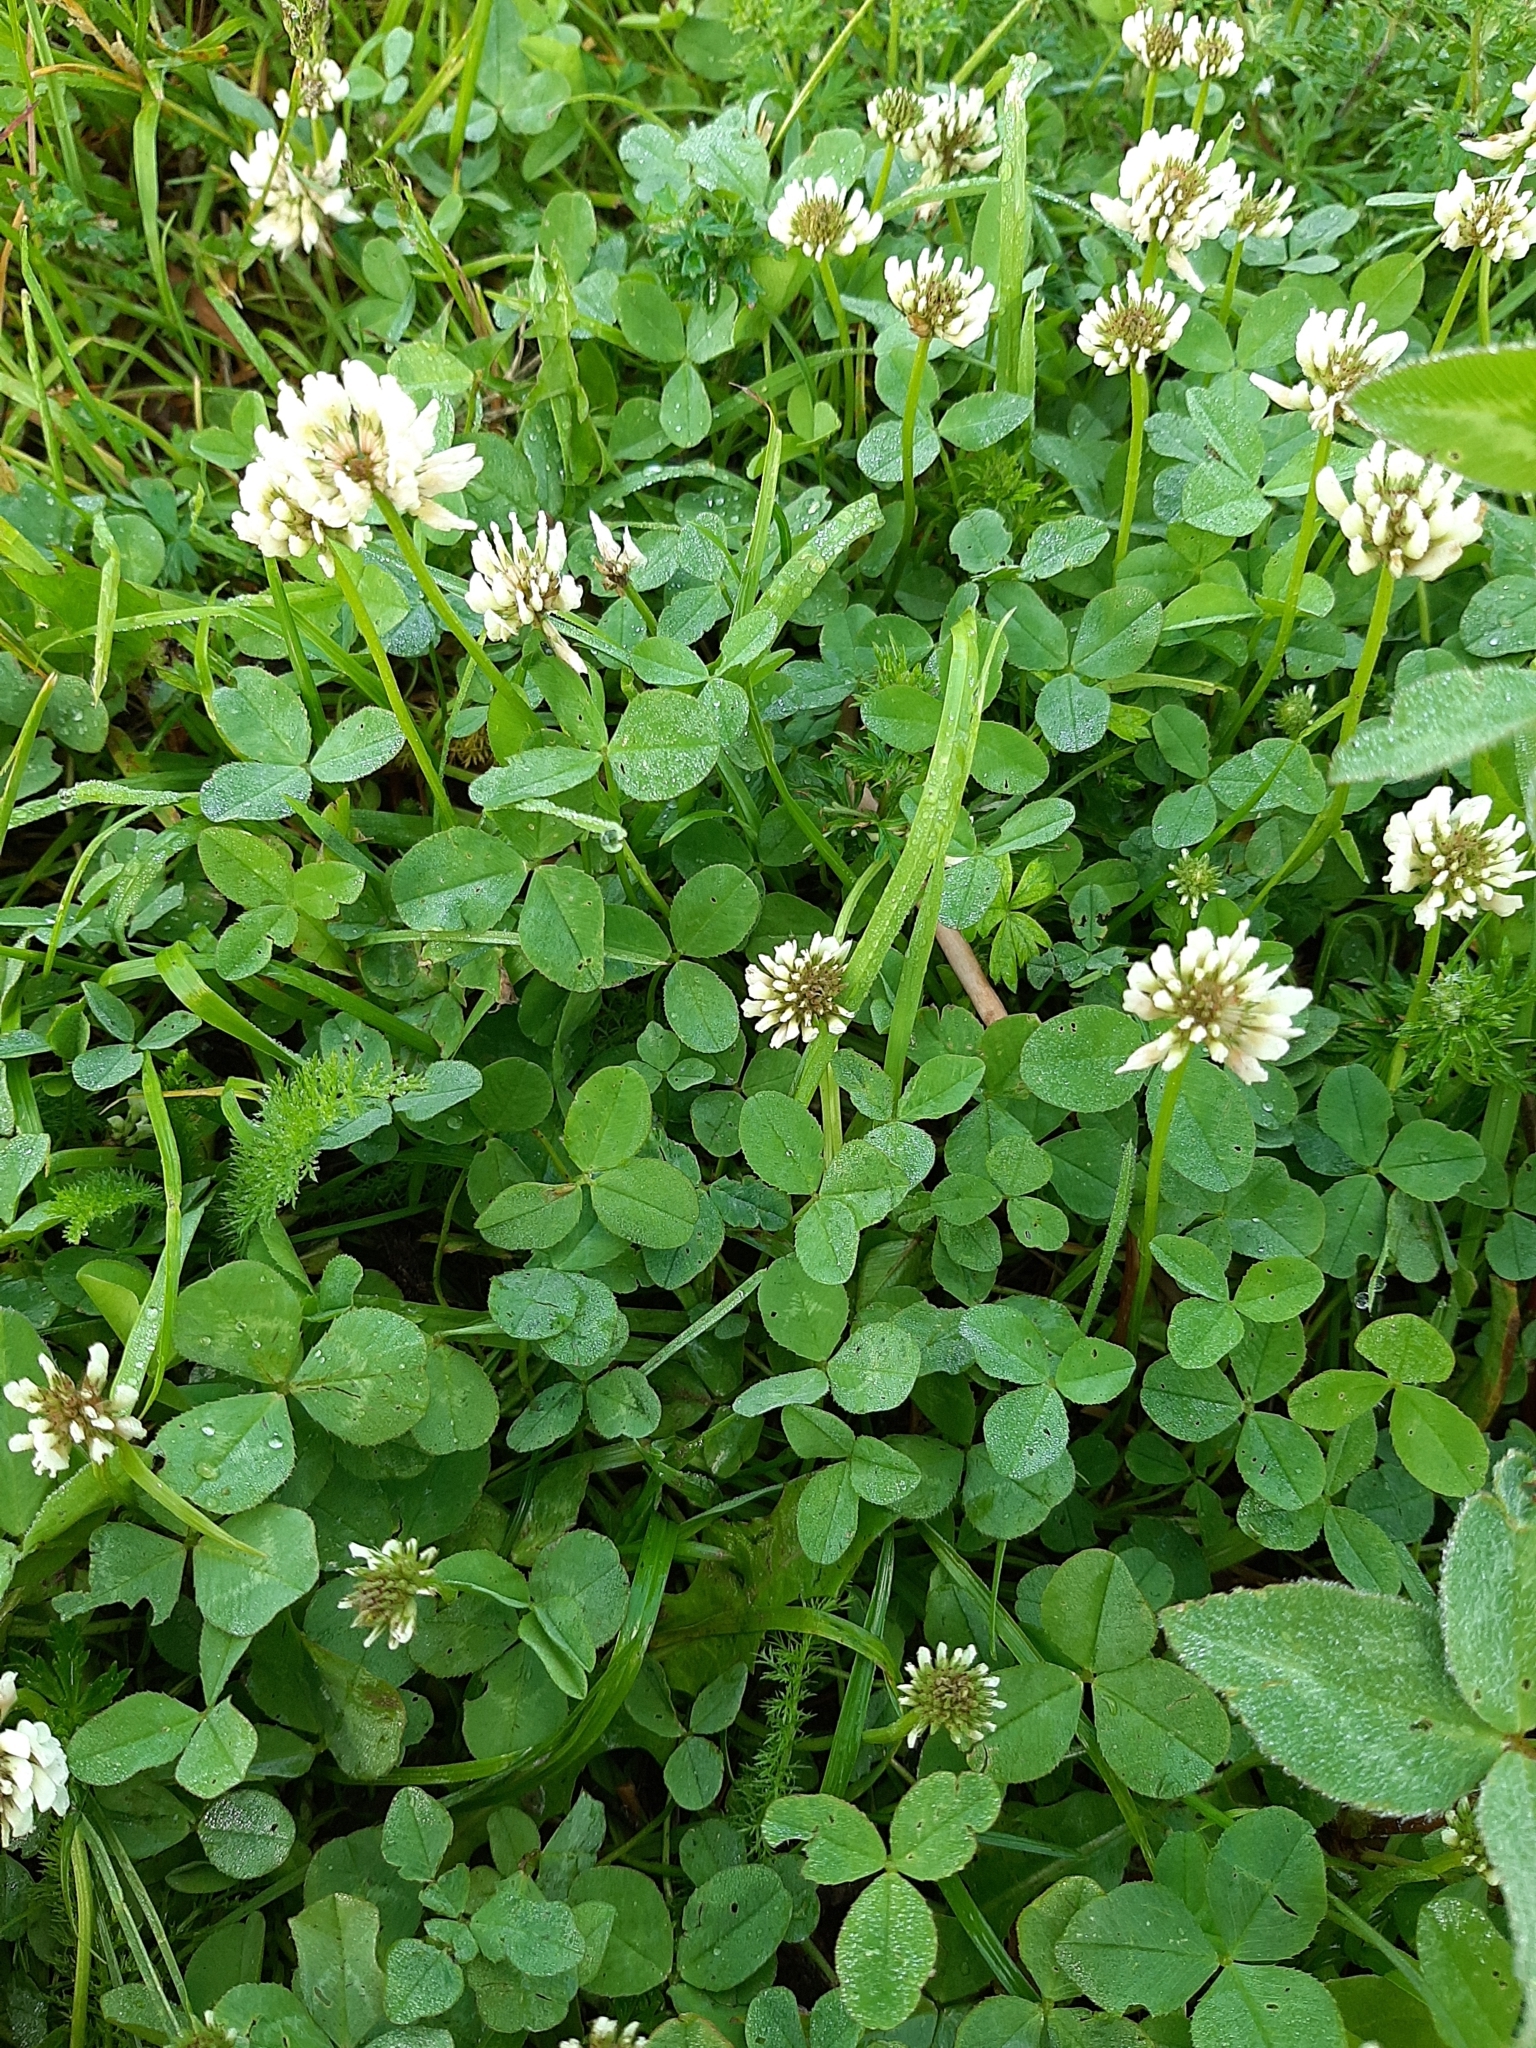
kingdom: Plantae
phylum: Tracheophyta
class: Magnoliopsida
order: Fabales
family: Fabaceae
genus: Trifolium
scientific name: Trifolium repens
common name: White clover
